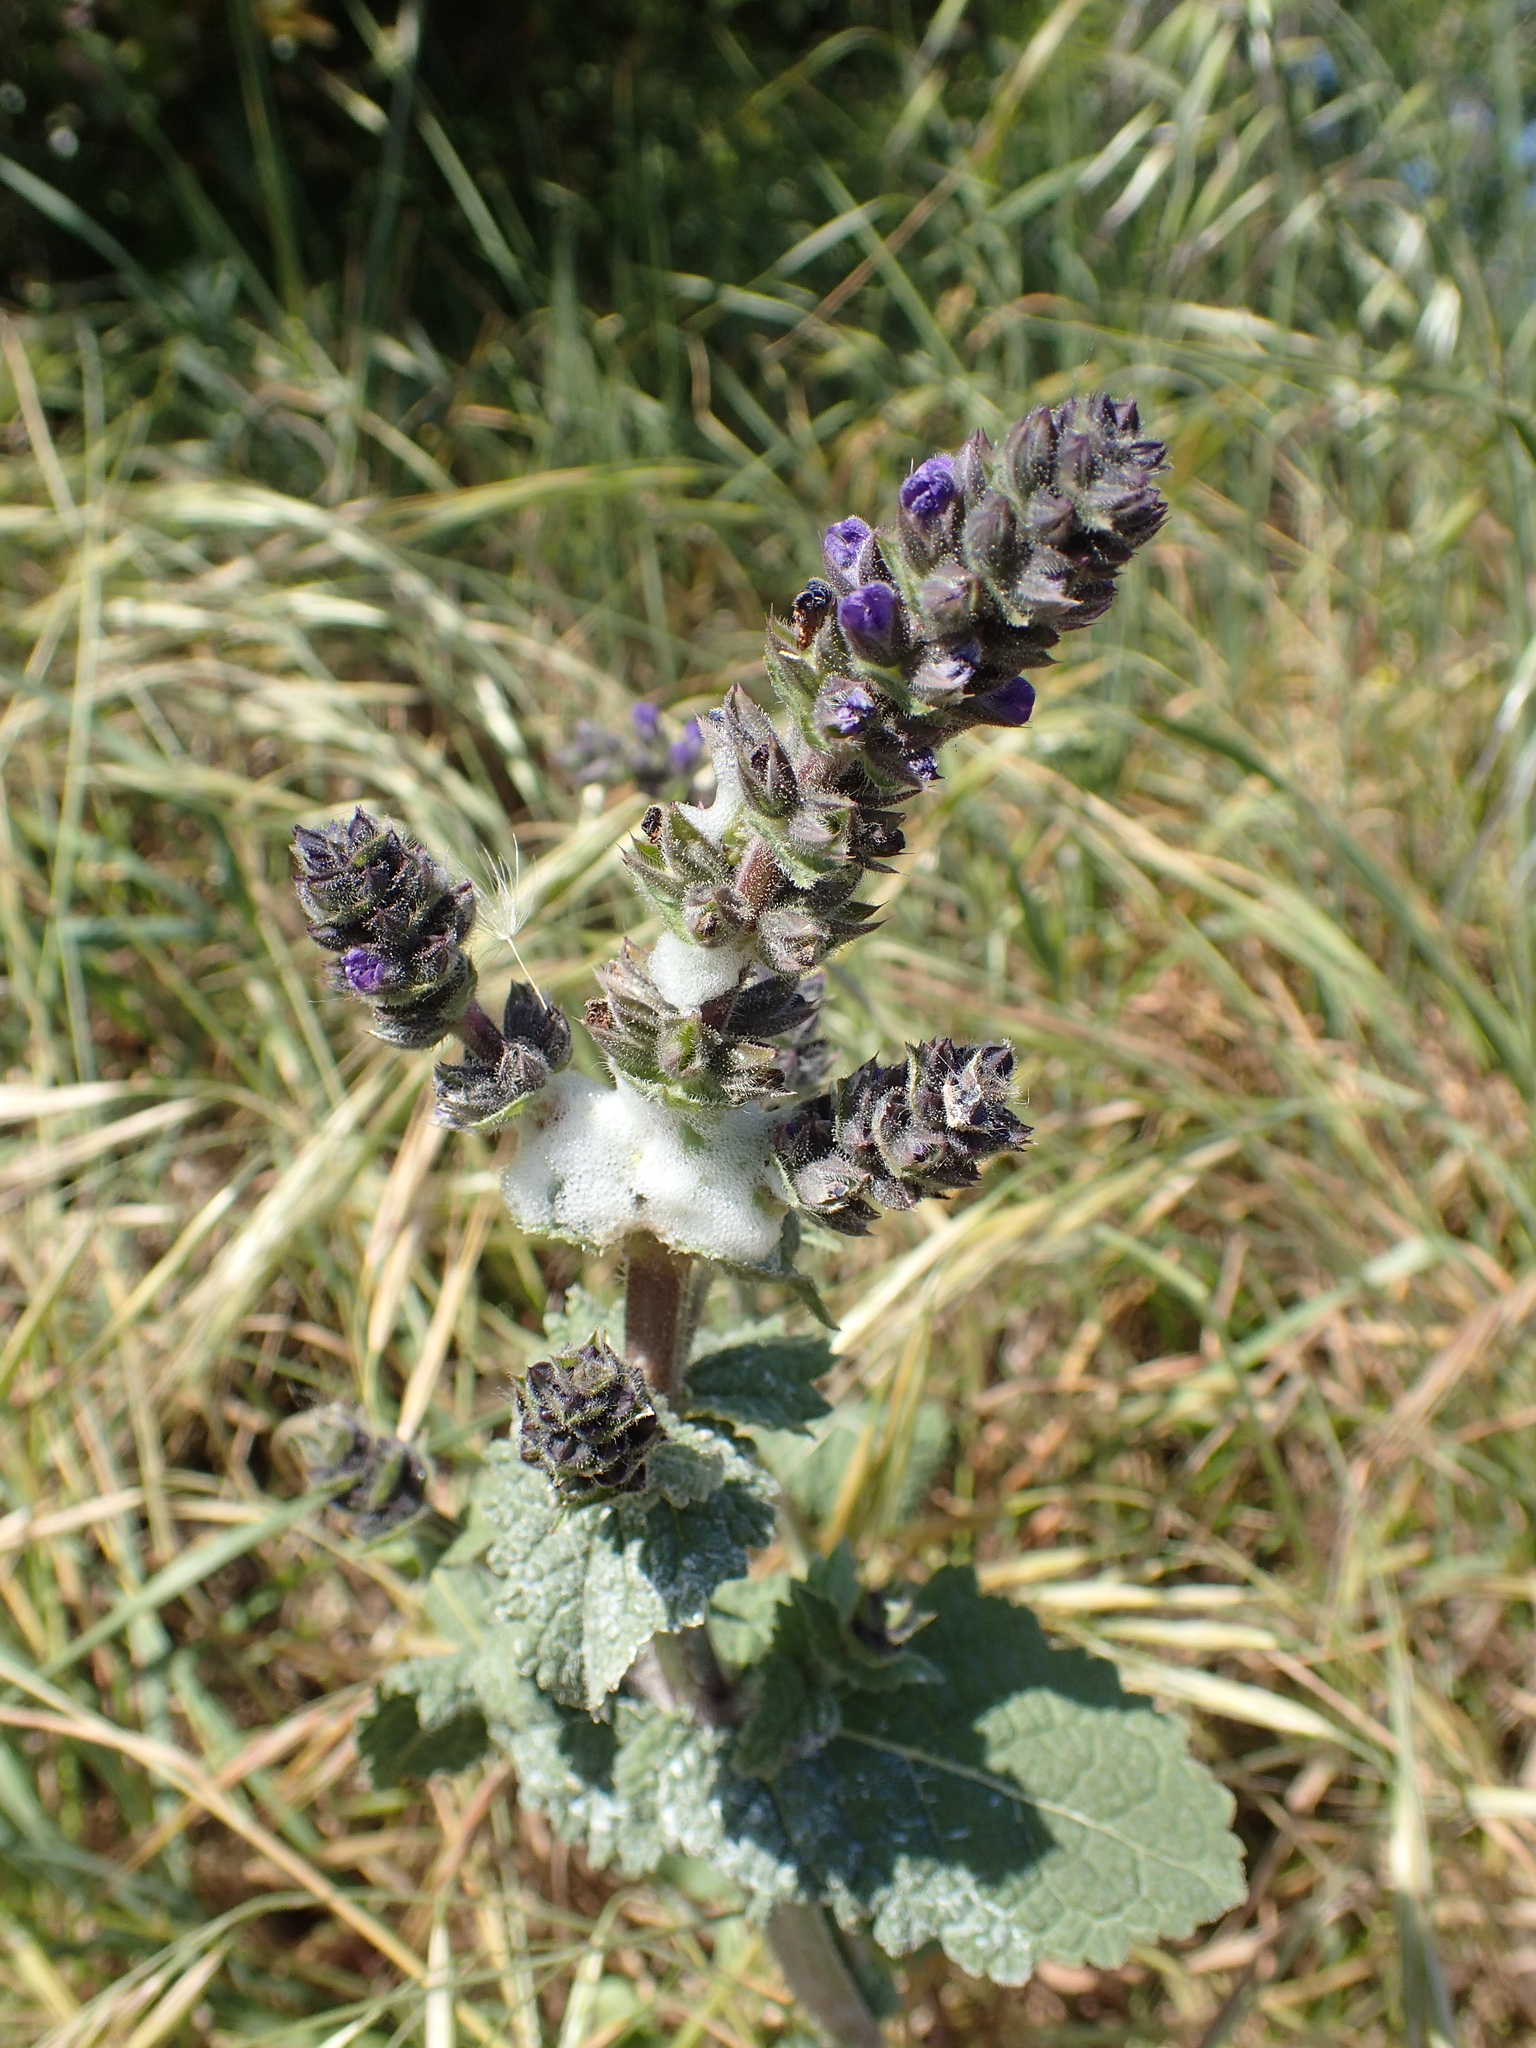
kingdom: Plantae
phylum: Tracheophyta
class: Magnoliopsida
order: Lamiales
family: Lamiaceae
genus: Salvia
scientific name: Salvia verbenaca
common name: Wild clary
